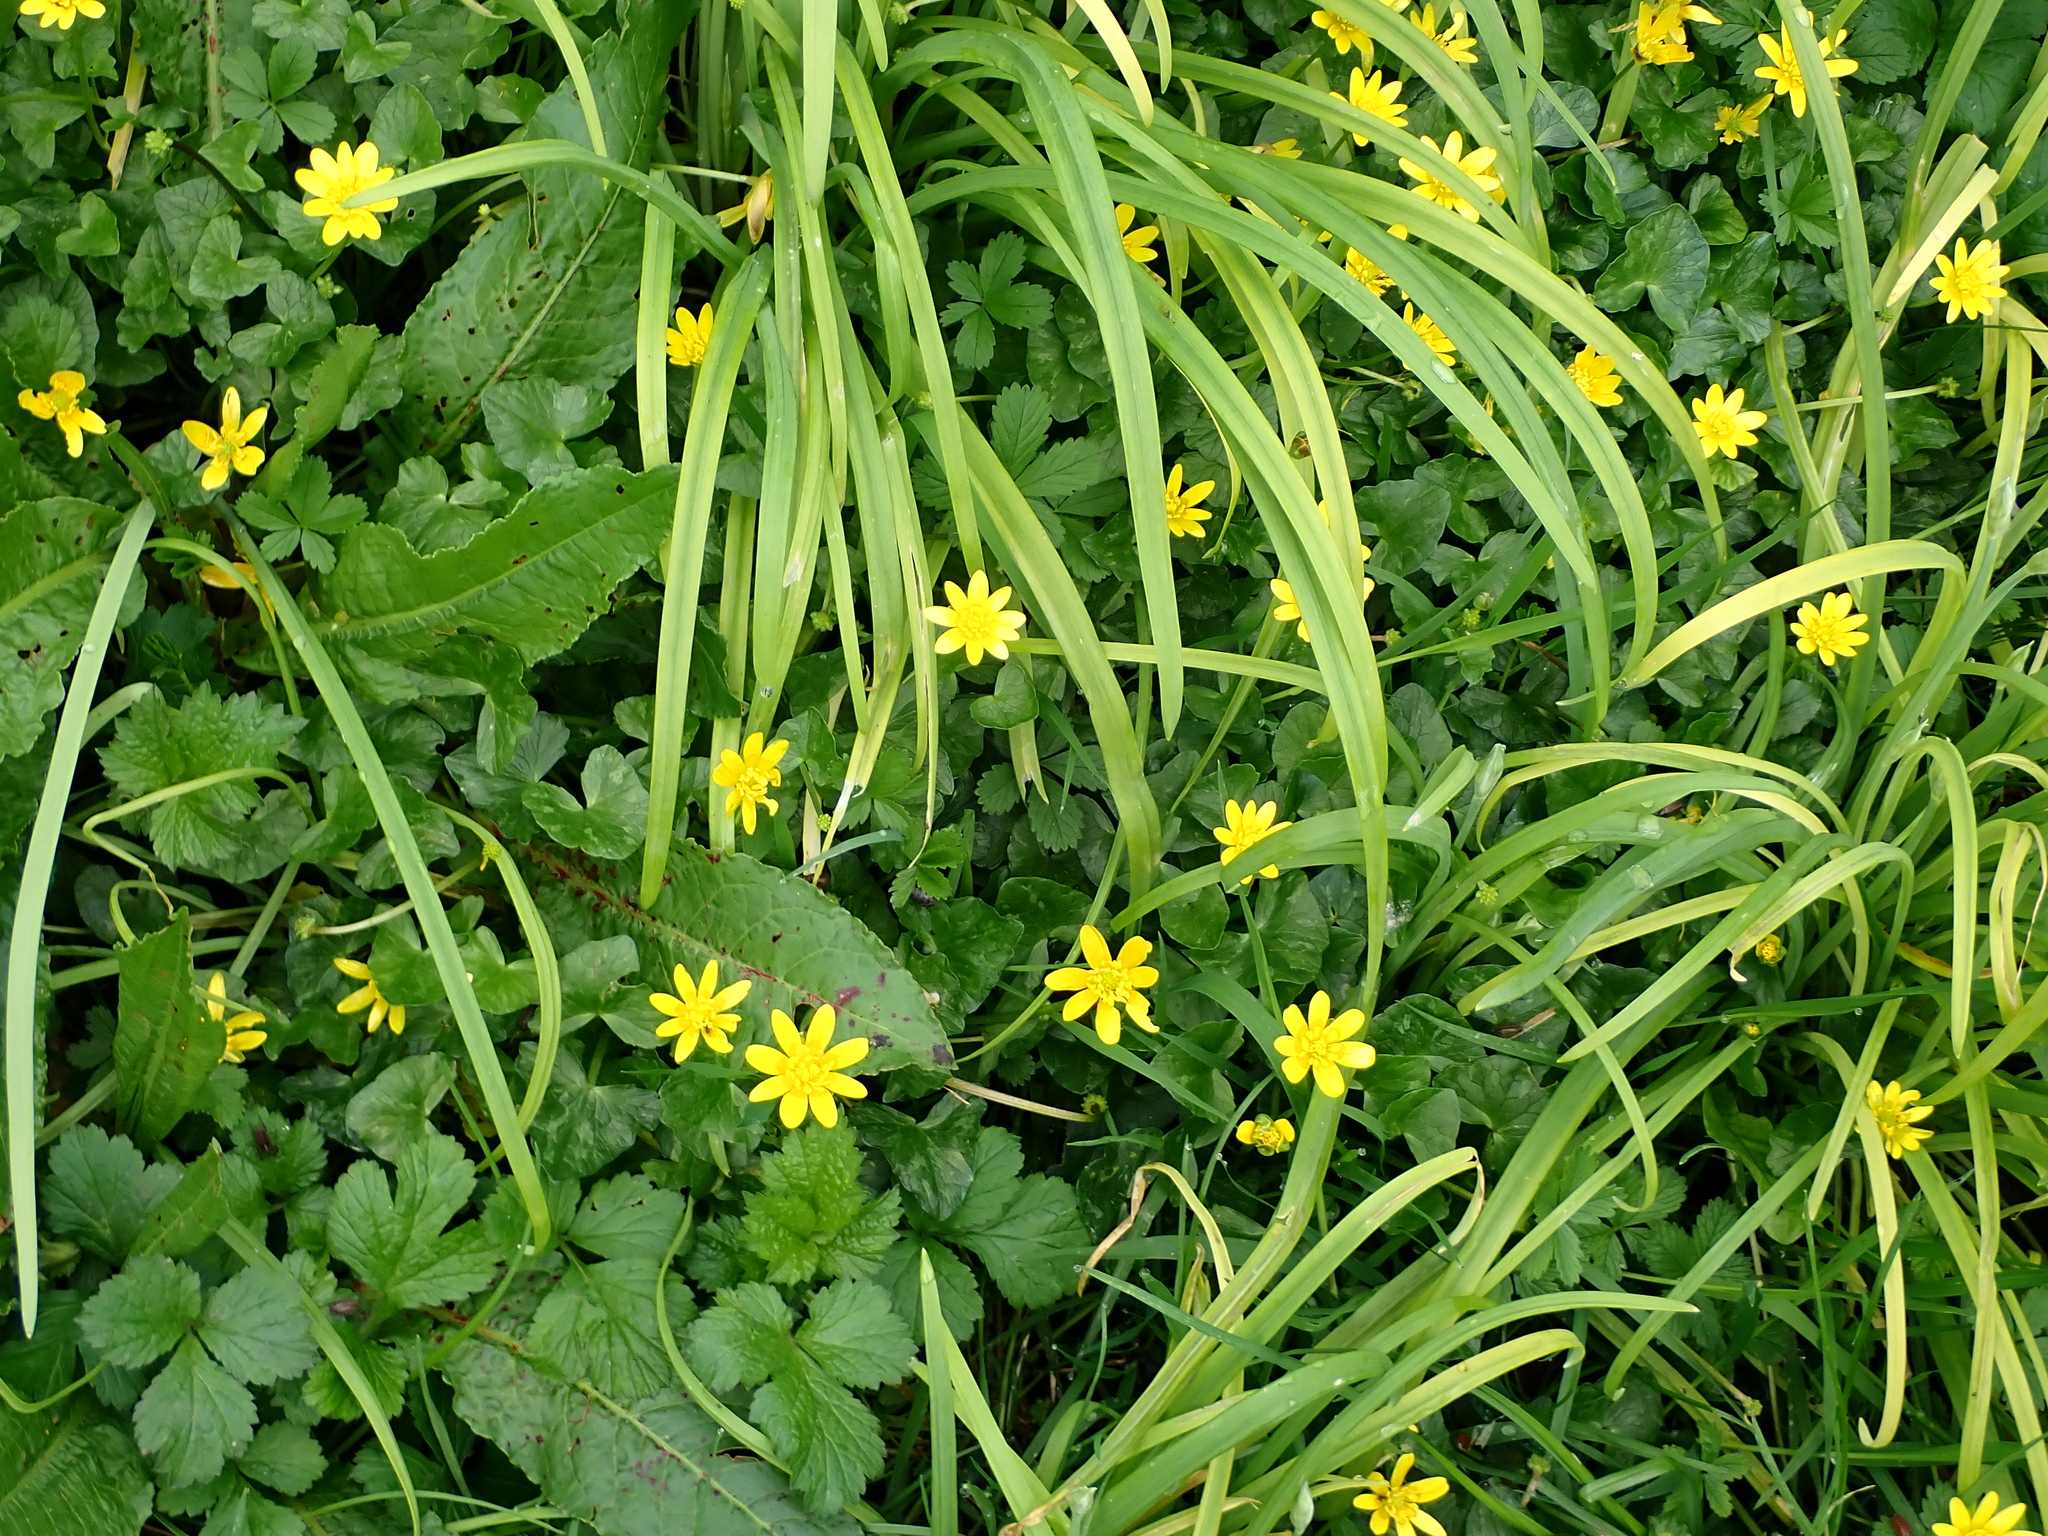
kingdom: Plantae
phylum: Tracheophyta
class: Magnoliopsida
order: Ranunculales
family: Ranunculaceae
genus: Ficaria
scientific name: Ficaria verna
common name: Lesser celandine
